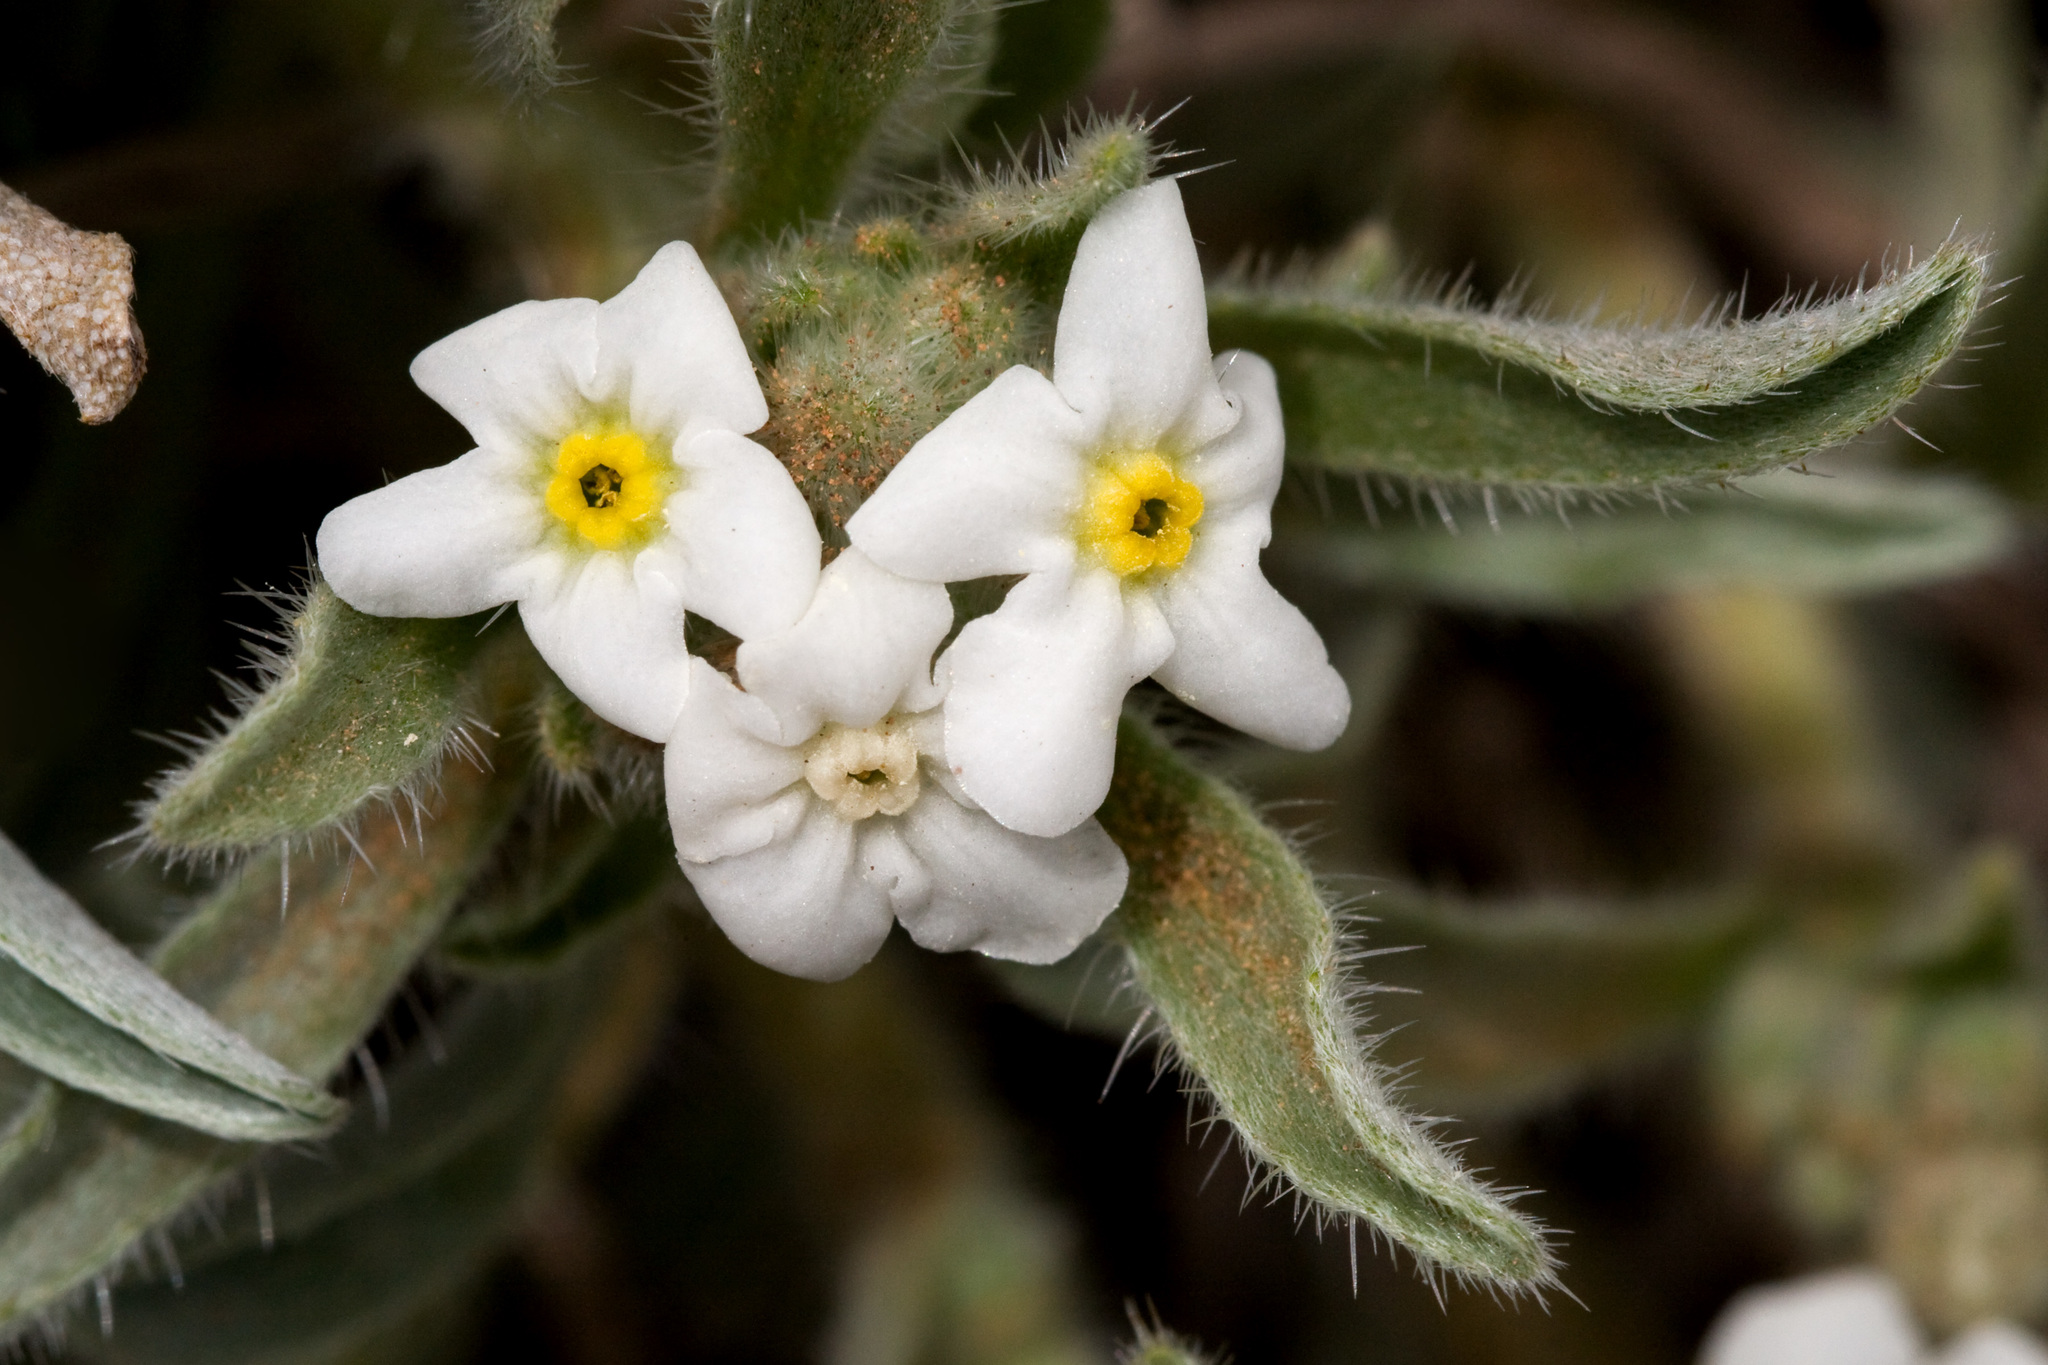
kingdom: Plantae
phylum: Tracheophyta
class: Magnoliopsida
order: Boraginales
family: Boraginaceae
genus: Oreocarya
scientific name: Oreocarya suffruticosa
